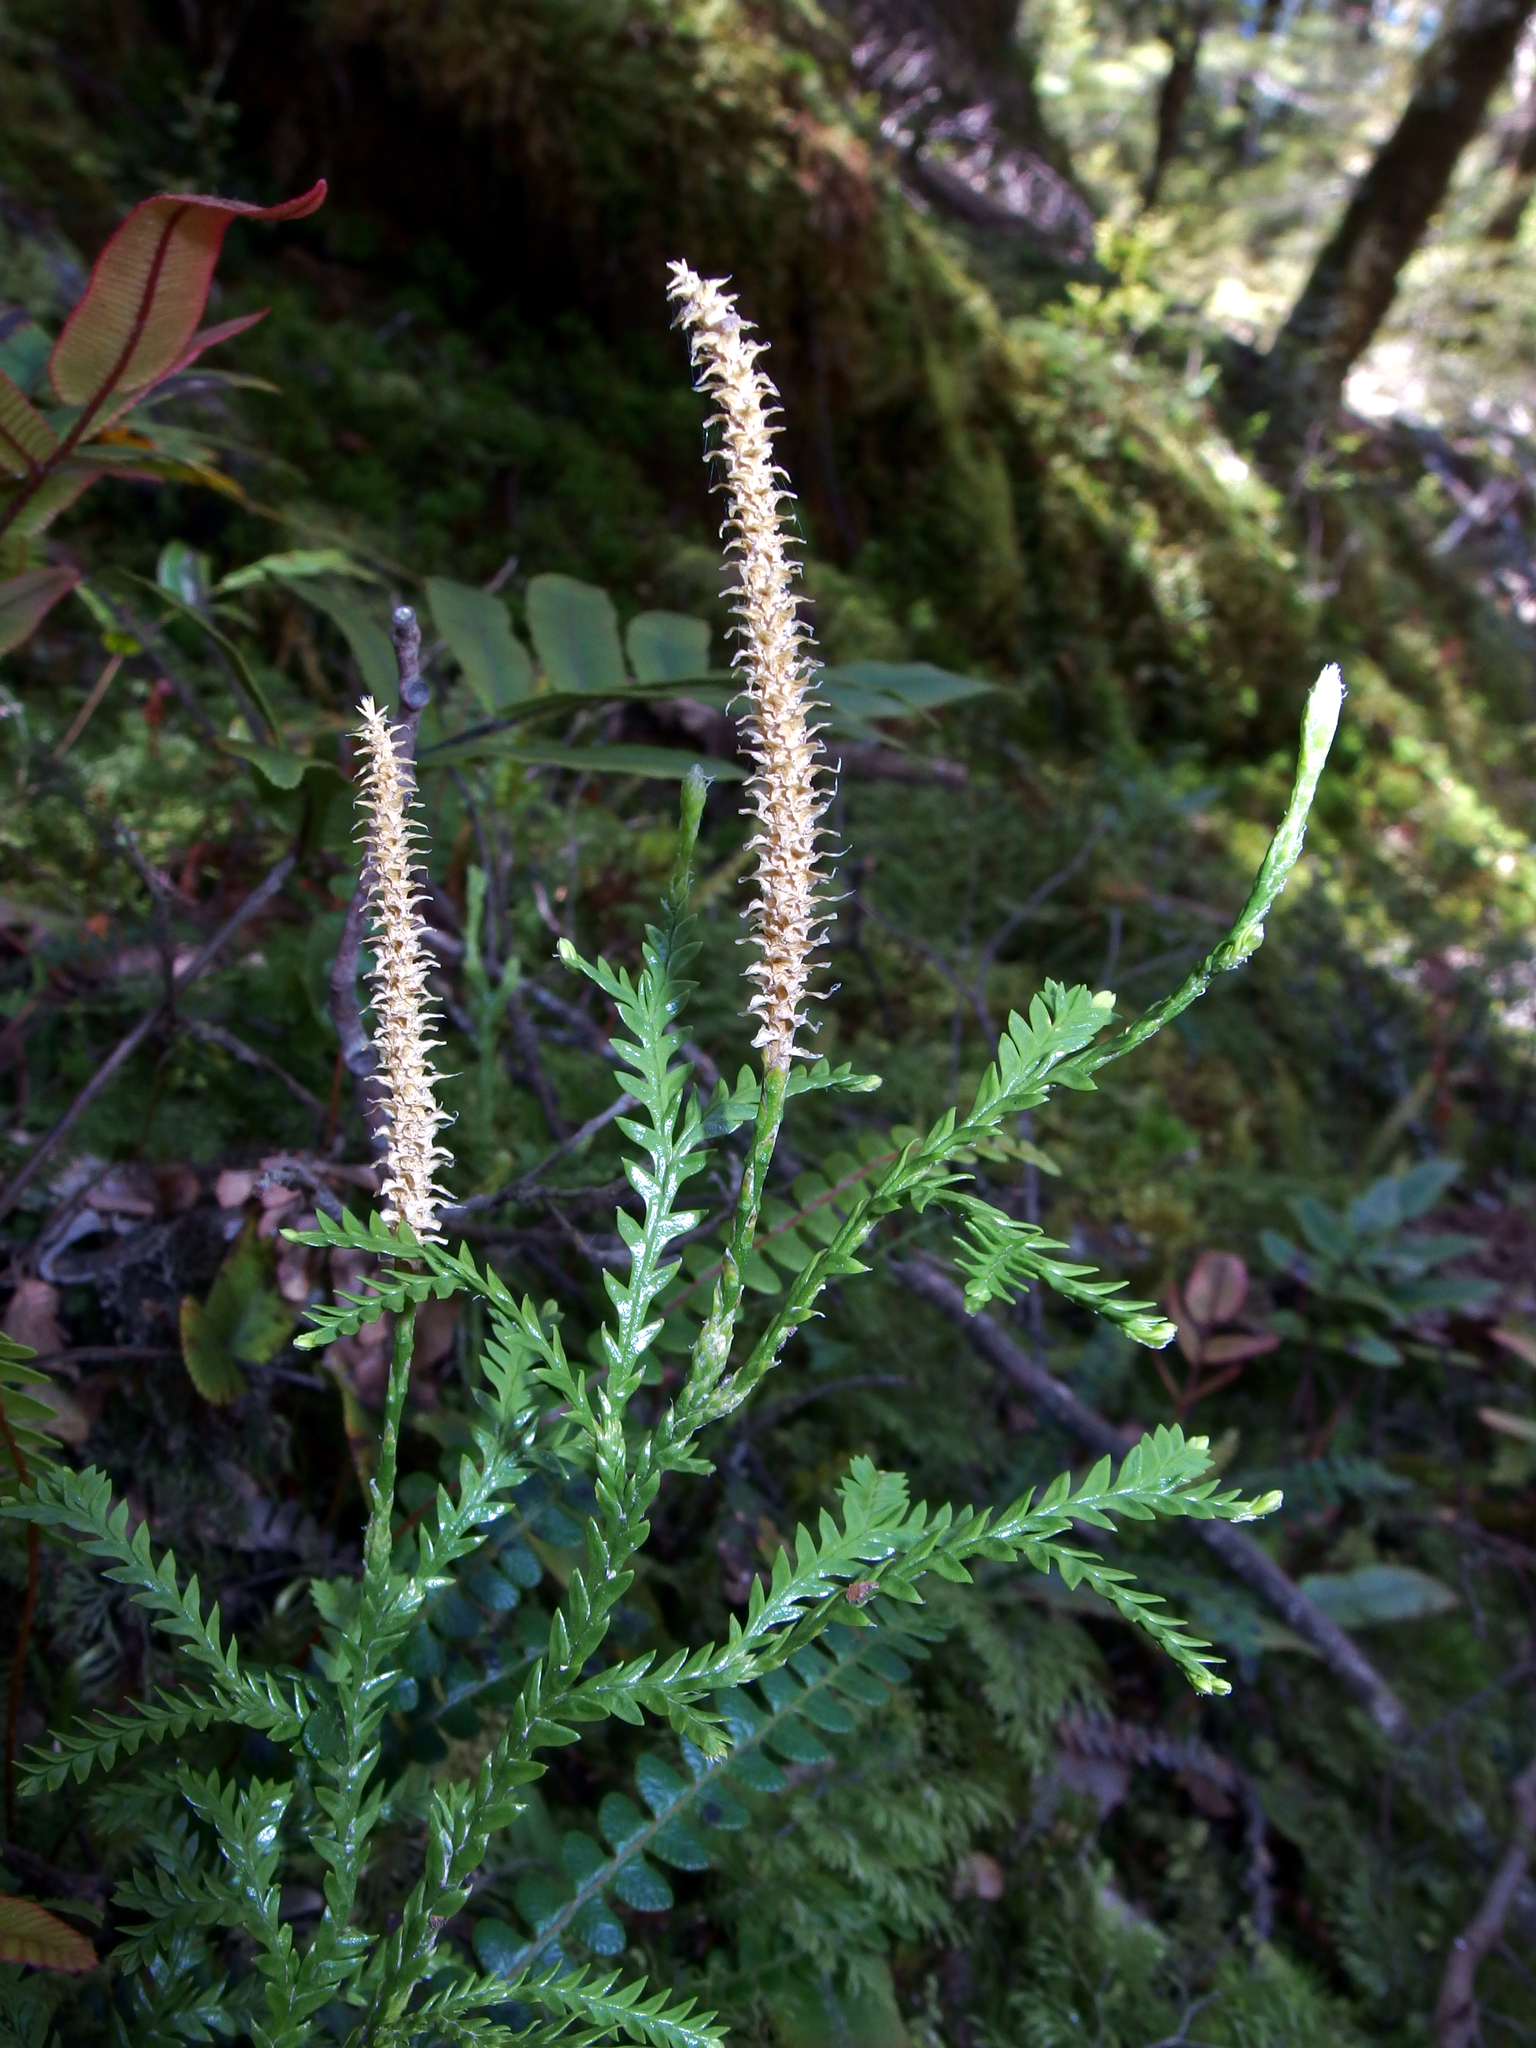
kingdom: Plantae
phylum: Tracheophyta
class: Lycopodiopsida
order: Lycopodiales
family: Lycopodiaceae
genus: Diphasium
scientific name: Diphasium scariosum
